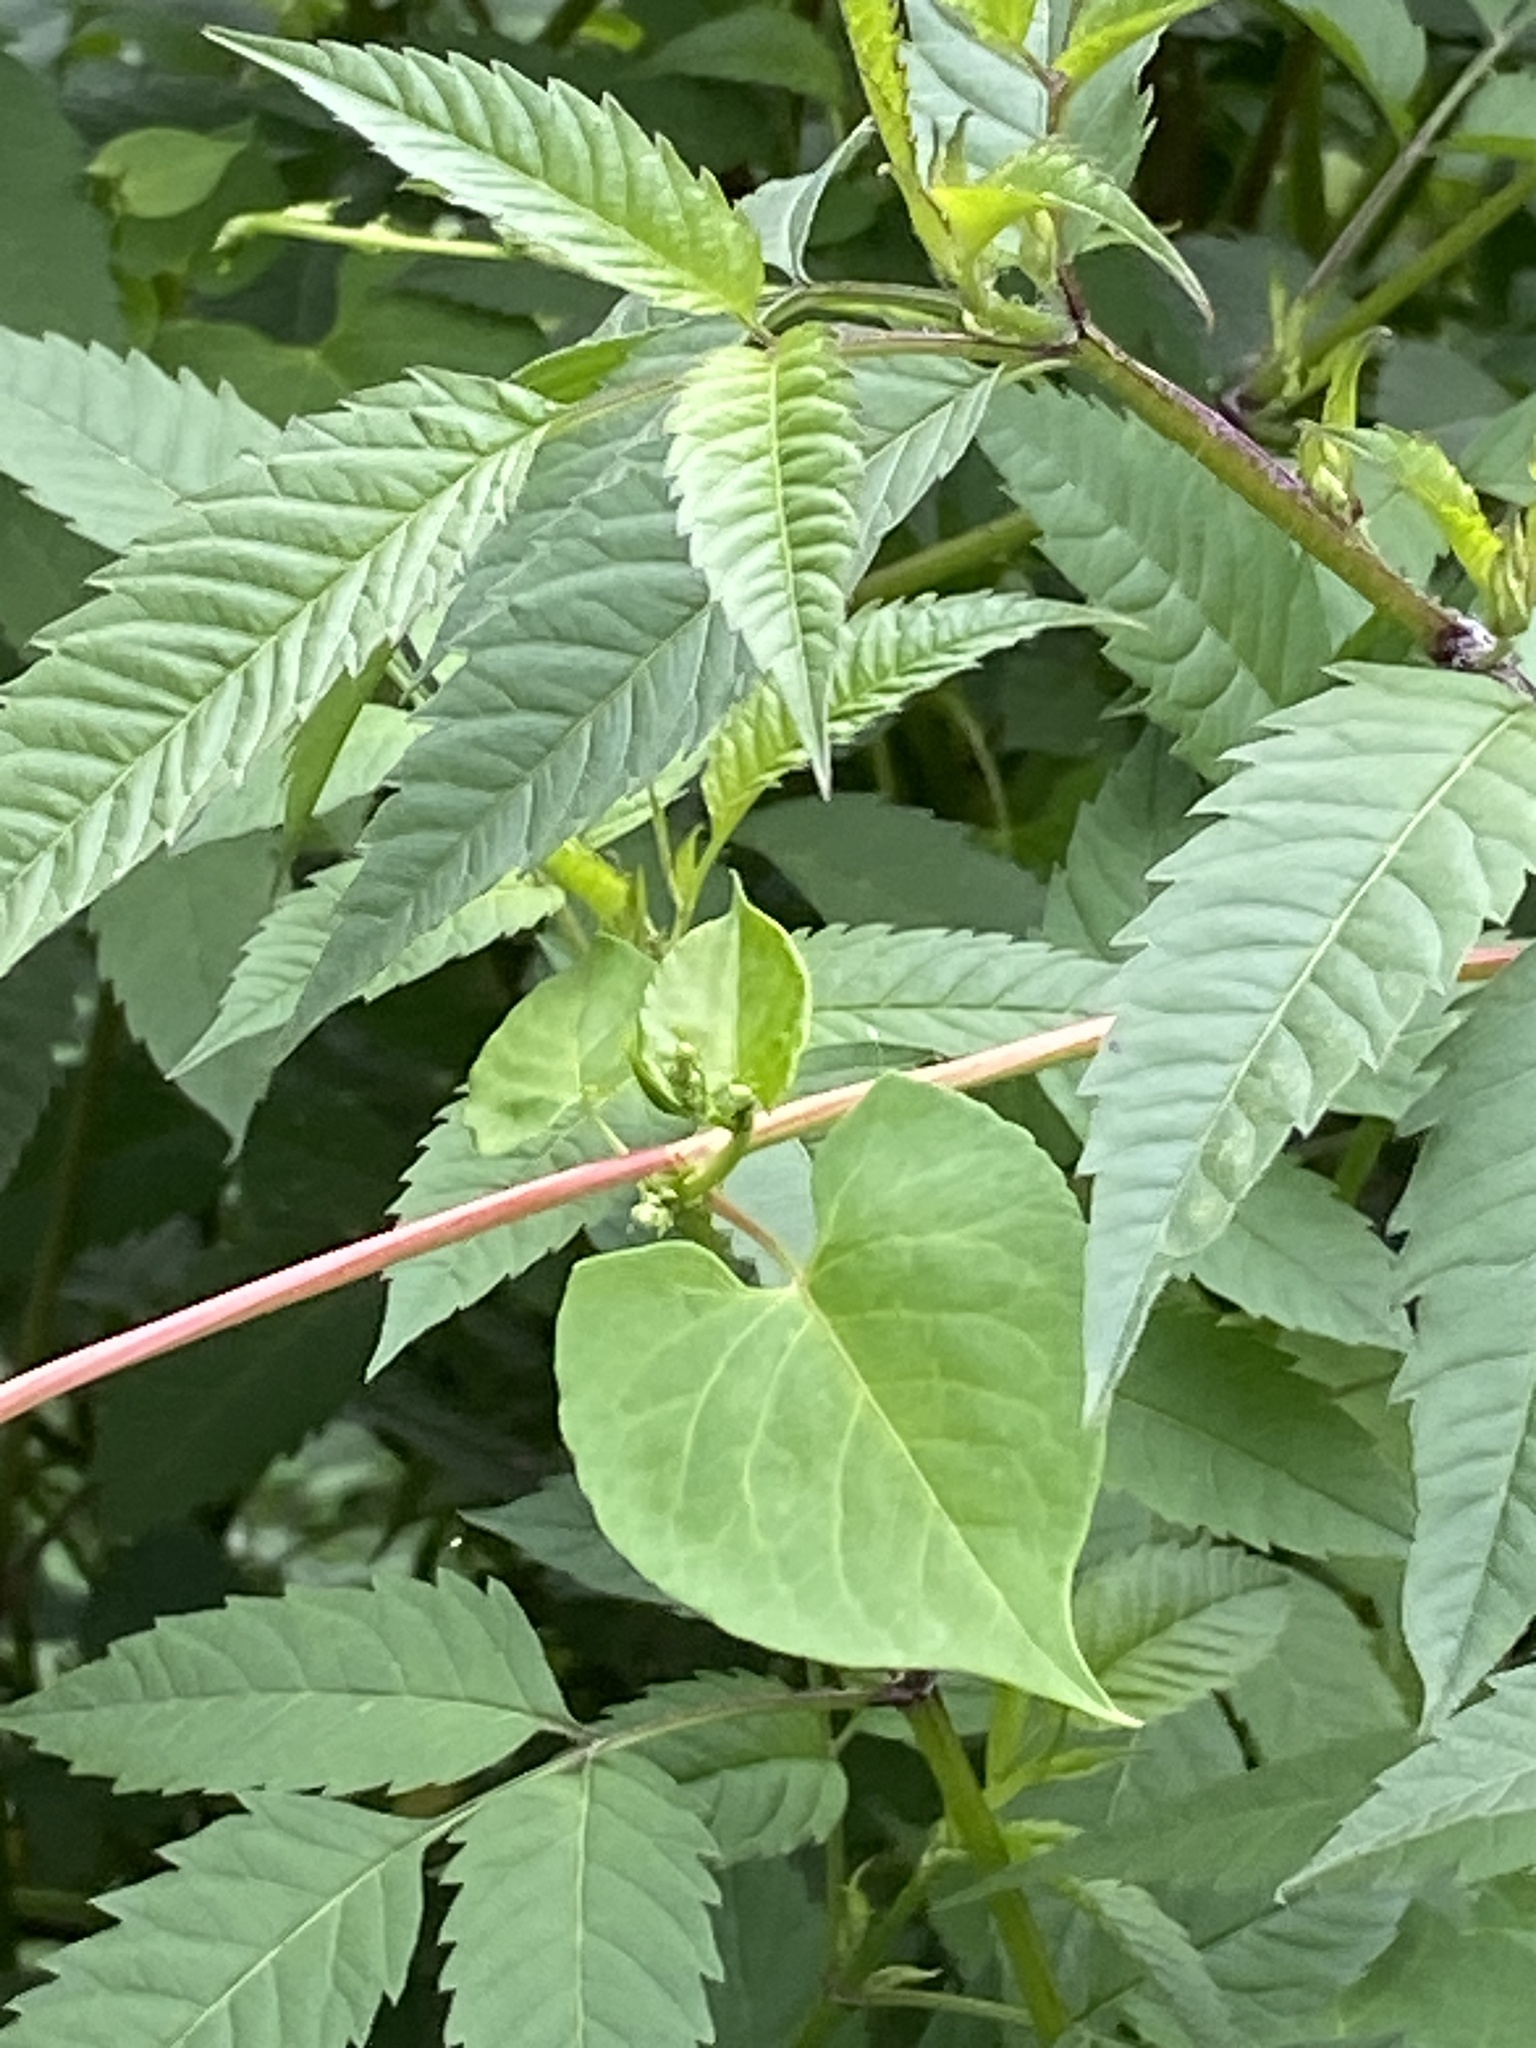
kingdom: Plantae
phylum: Tracheophyta
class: Magnoliopsida
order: Caryophyllales
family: Polygonaceae
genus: Fallopia
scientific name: Fallopia scandens
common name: Climbing false buckwheat
